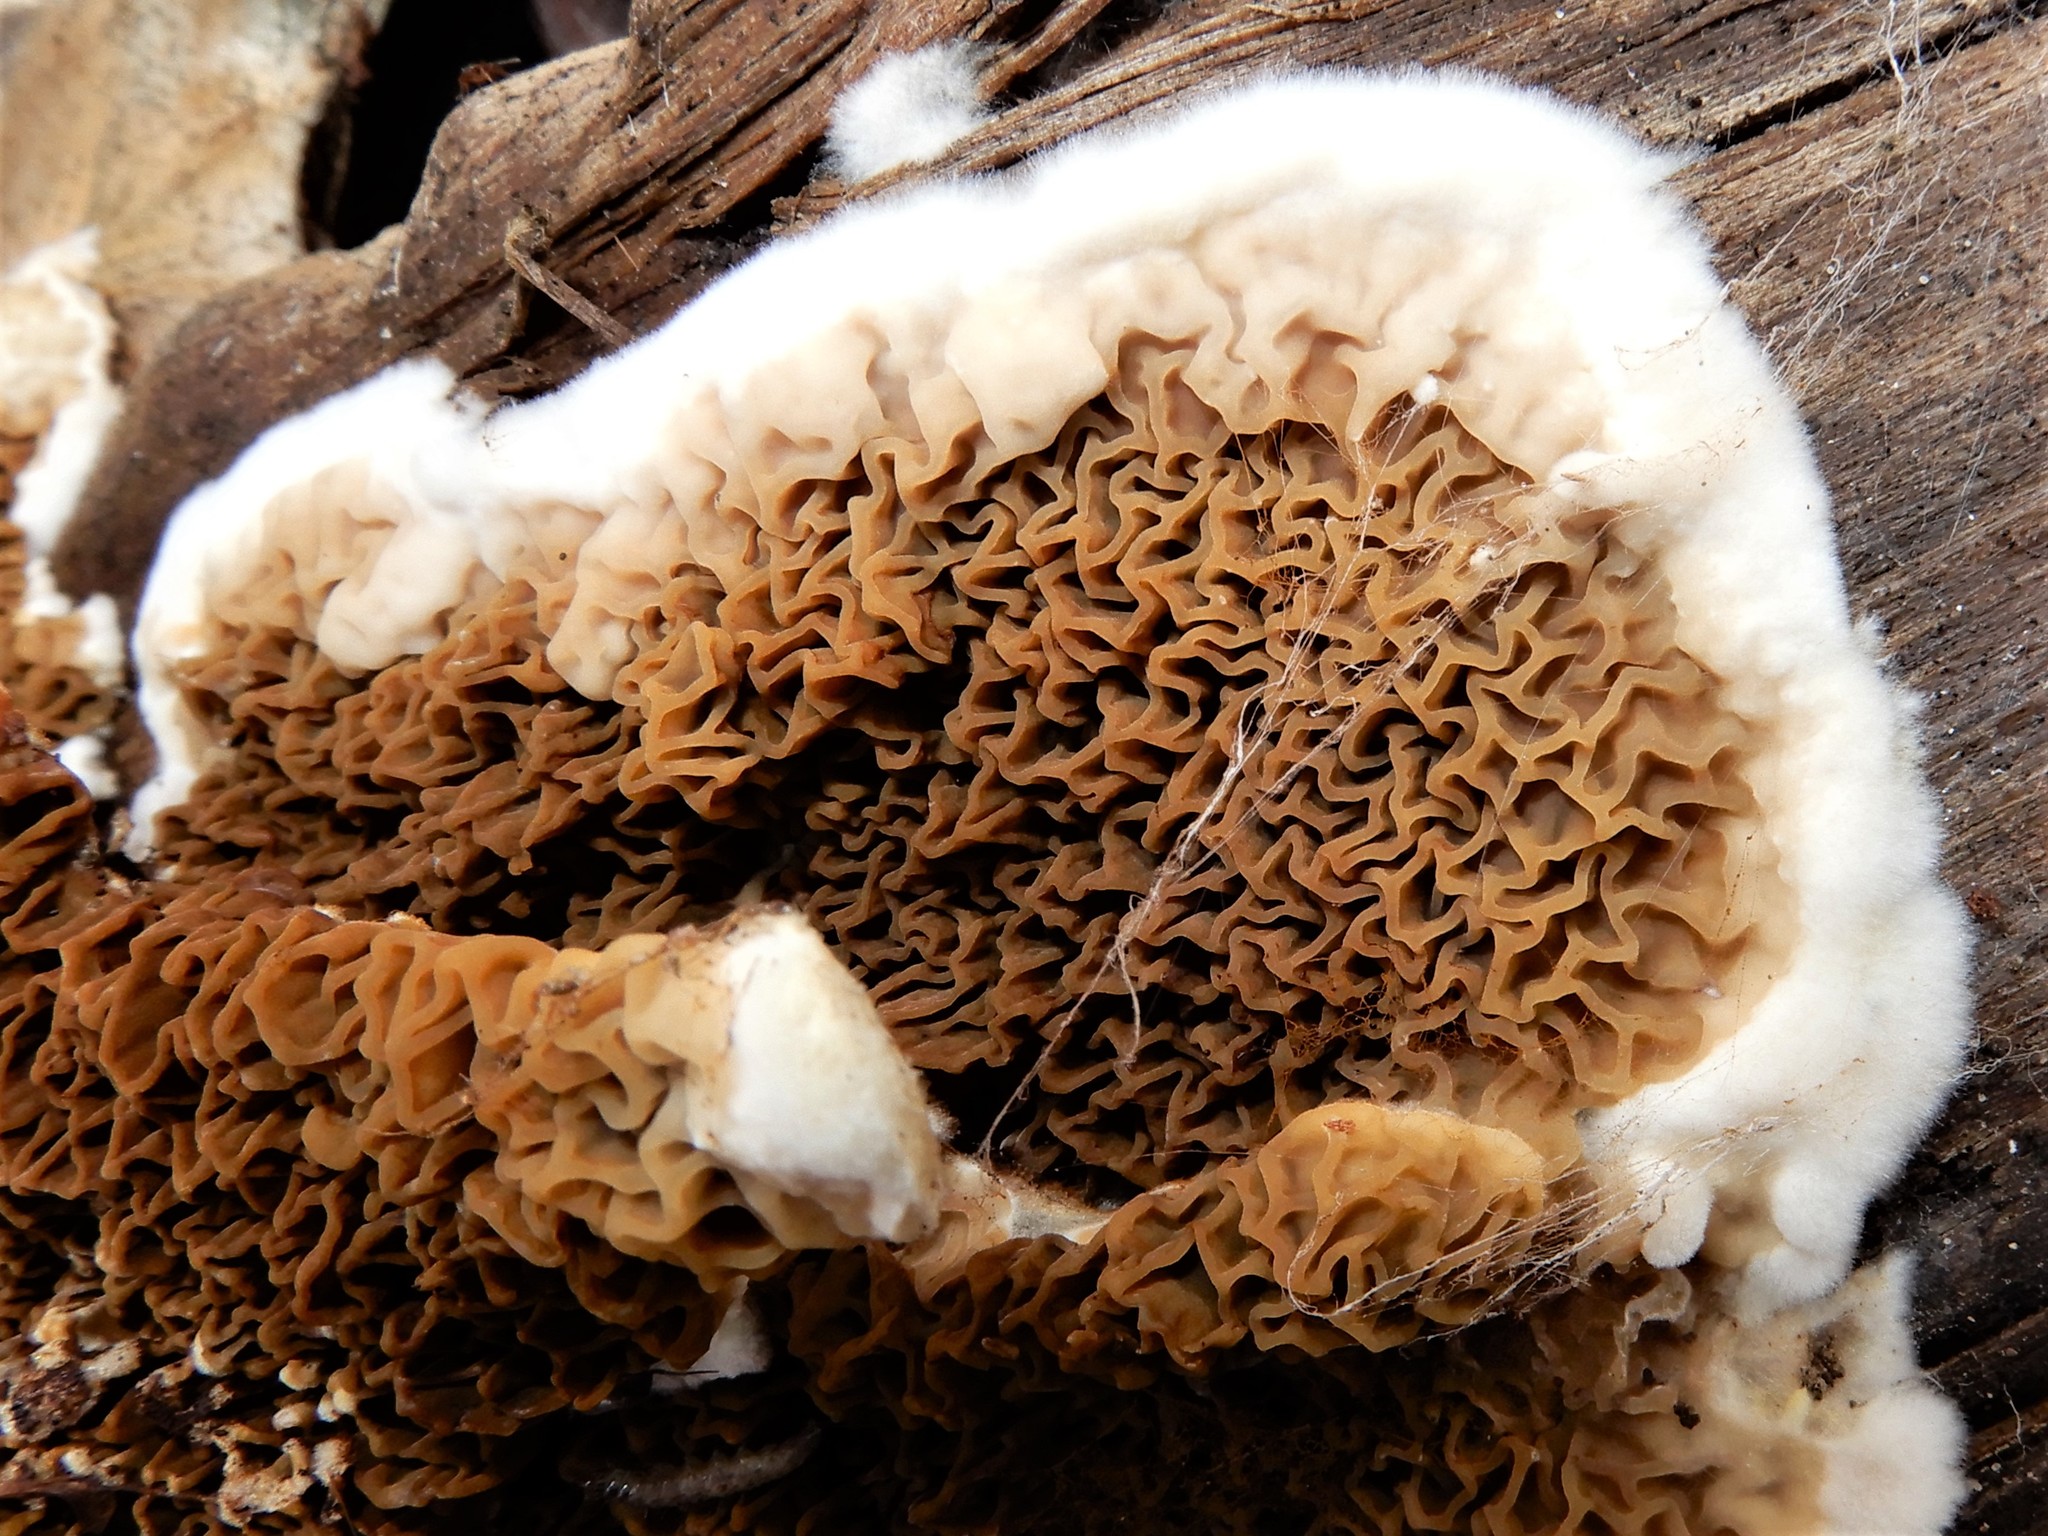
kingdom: Fungi
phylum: Basidiomycota
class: Agaricomycetes
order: Boletales
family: Serpulaceae
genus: Serpula
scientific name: Serpula himantioides
